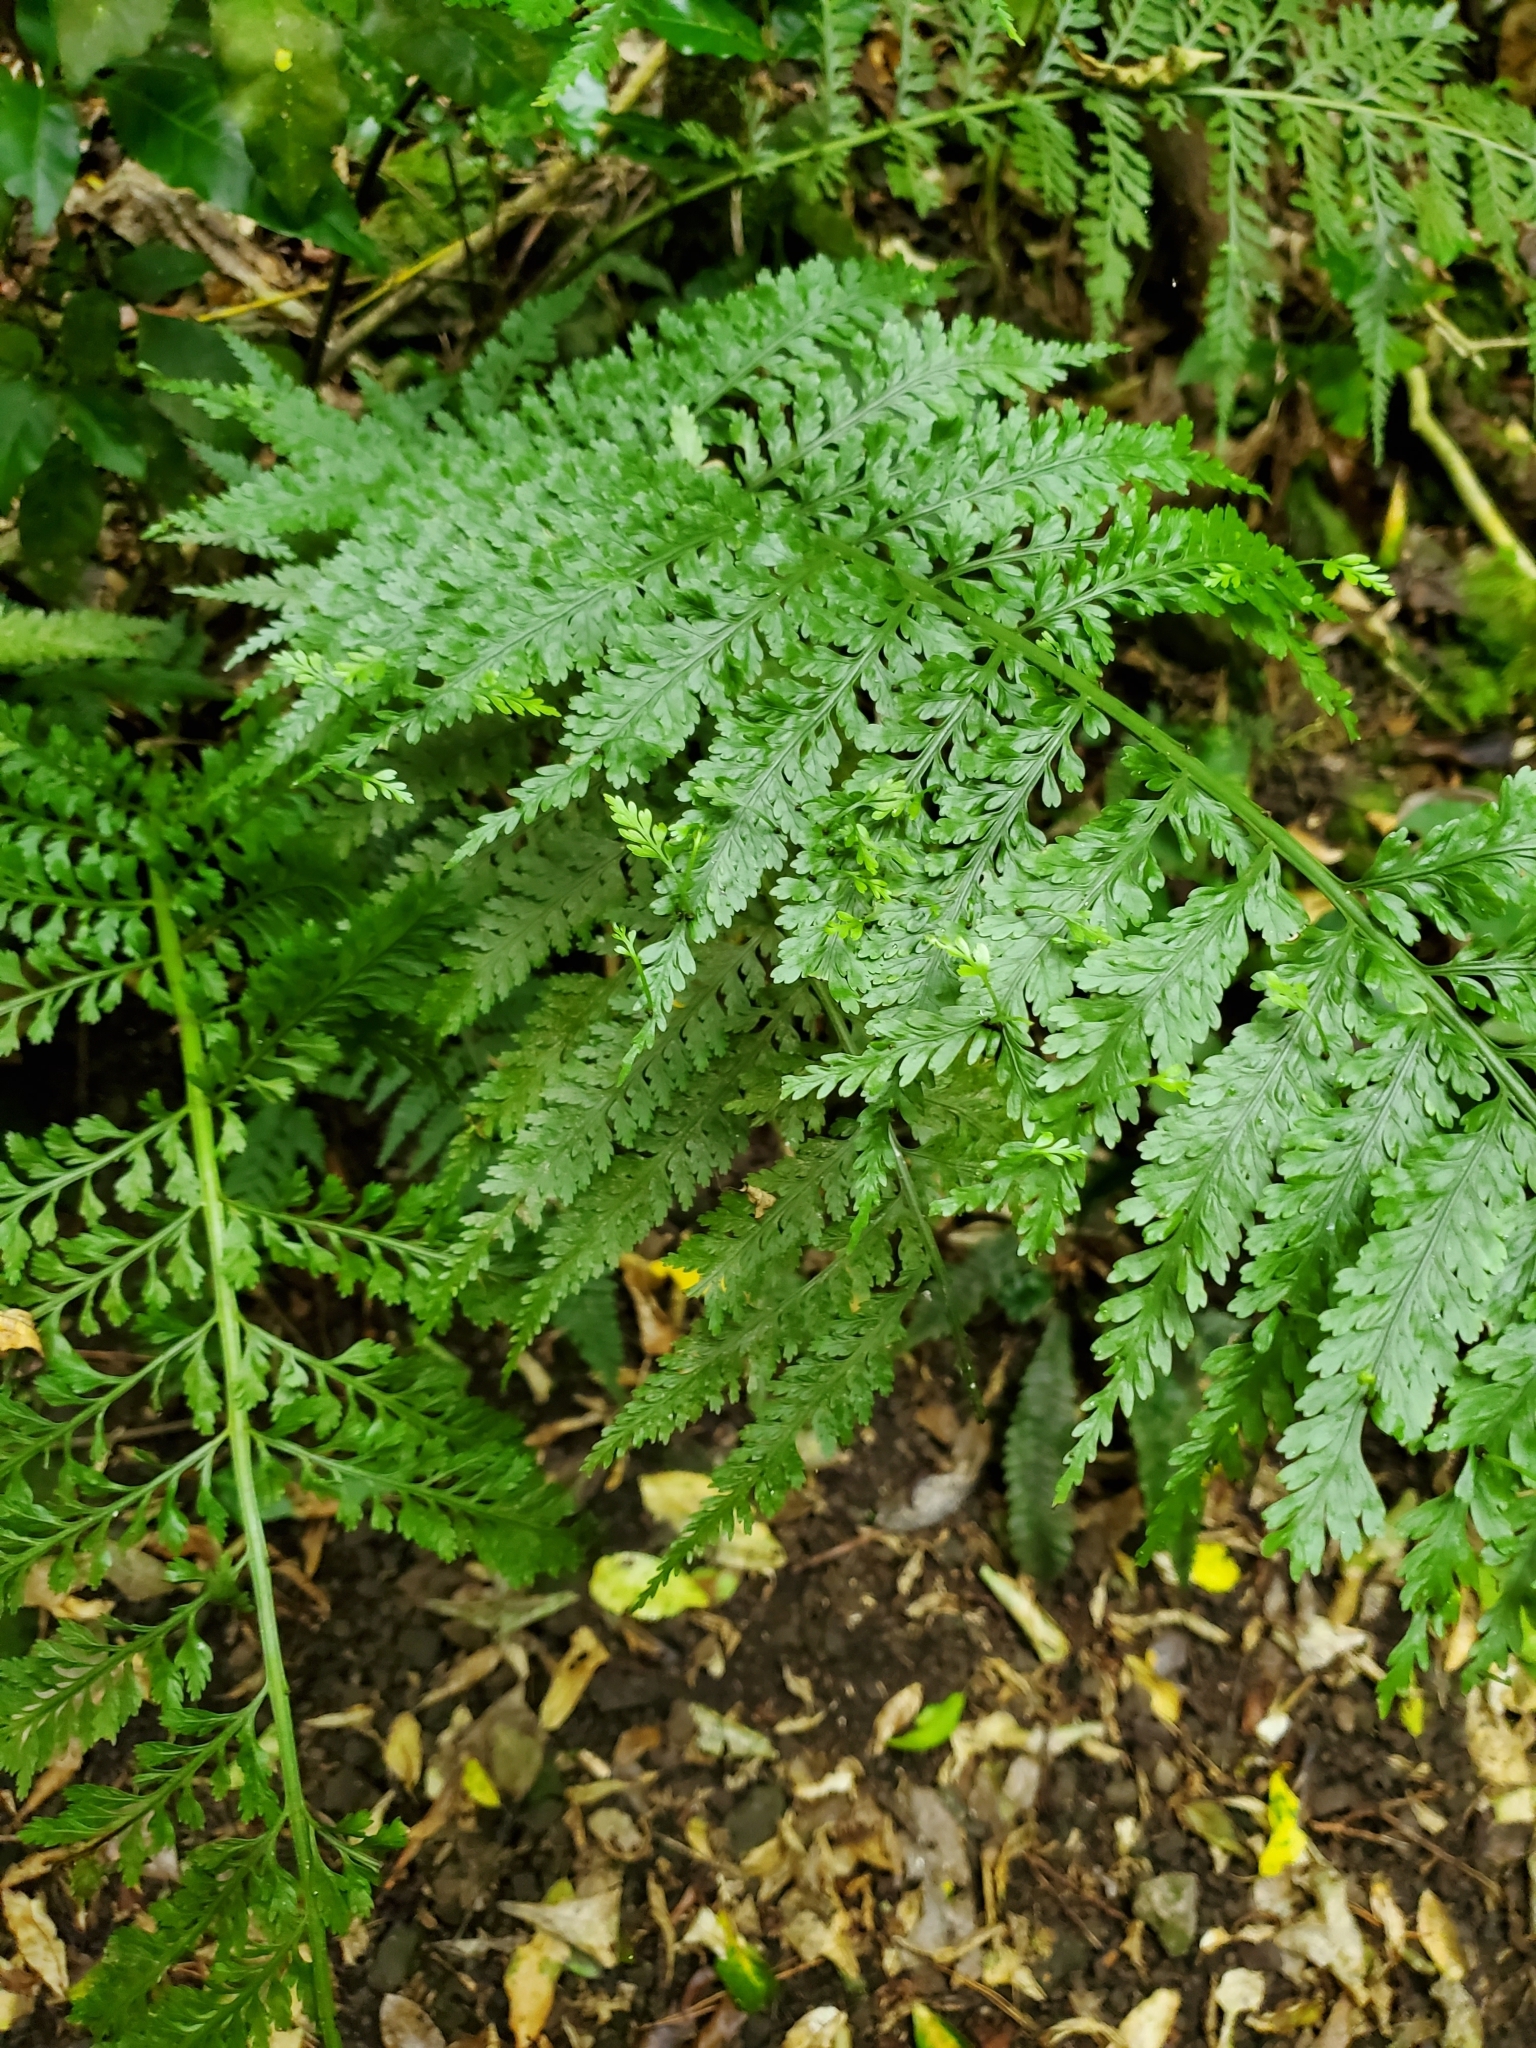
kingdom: Plantae
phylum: Tracheophyta
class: Polypodiopsida
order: Polypodiales
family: Aspleniaceae
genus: Asplenium
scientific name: Asplenium bulbiferum
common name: Mother fern
